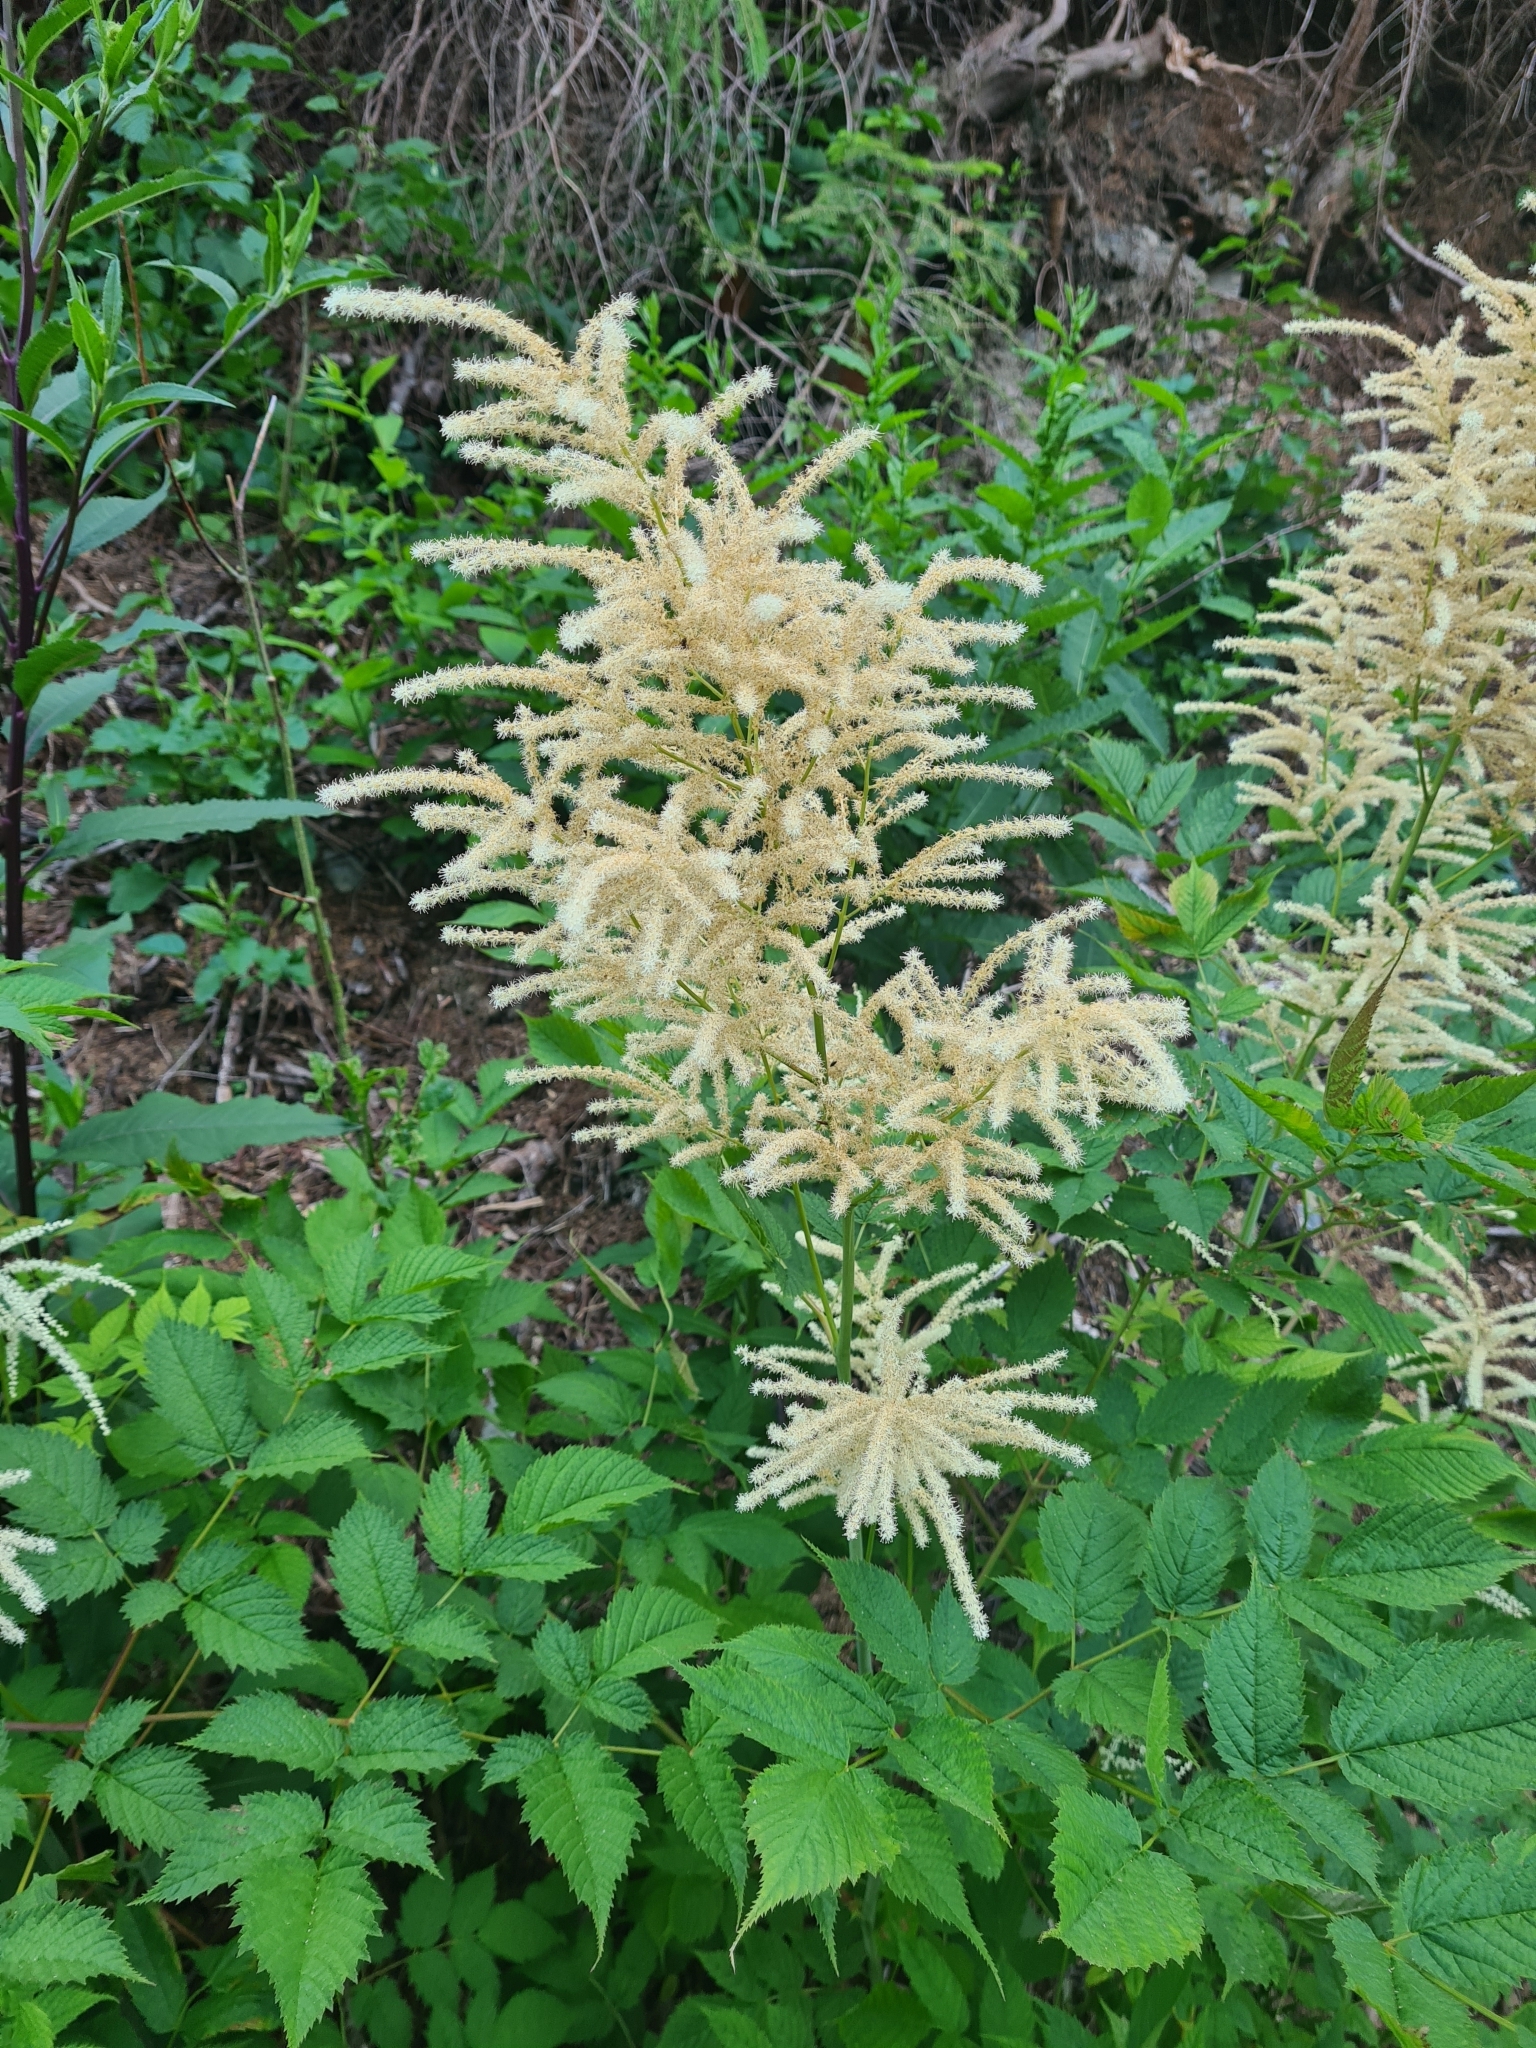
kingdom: Plantae
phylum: Tracheophyta
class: Magnoliopsida
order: Rosales
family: Rosaceae
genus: Aruncus
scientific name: Aruncus dioicus
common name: Buck's-beard
